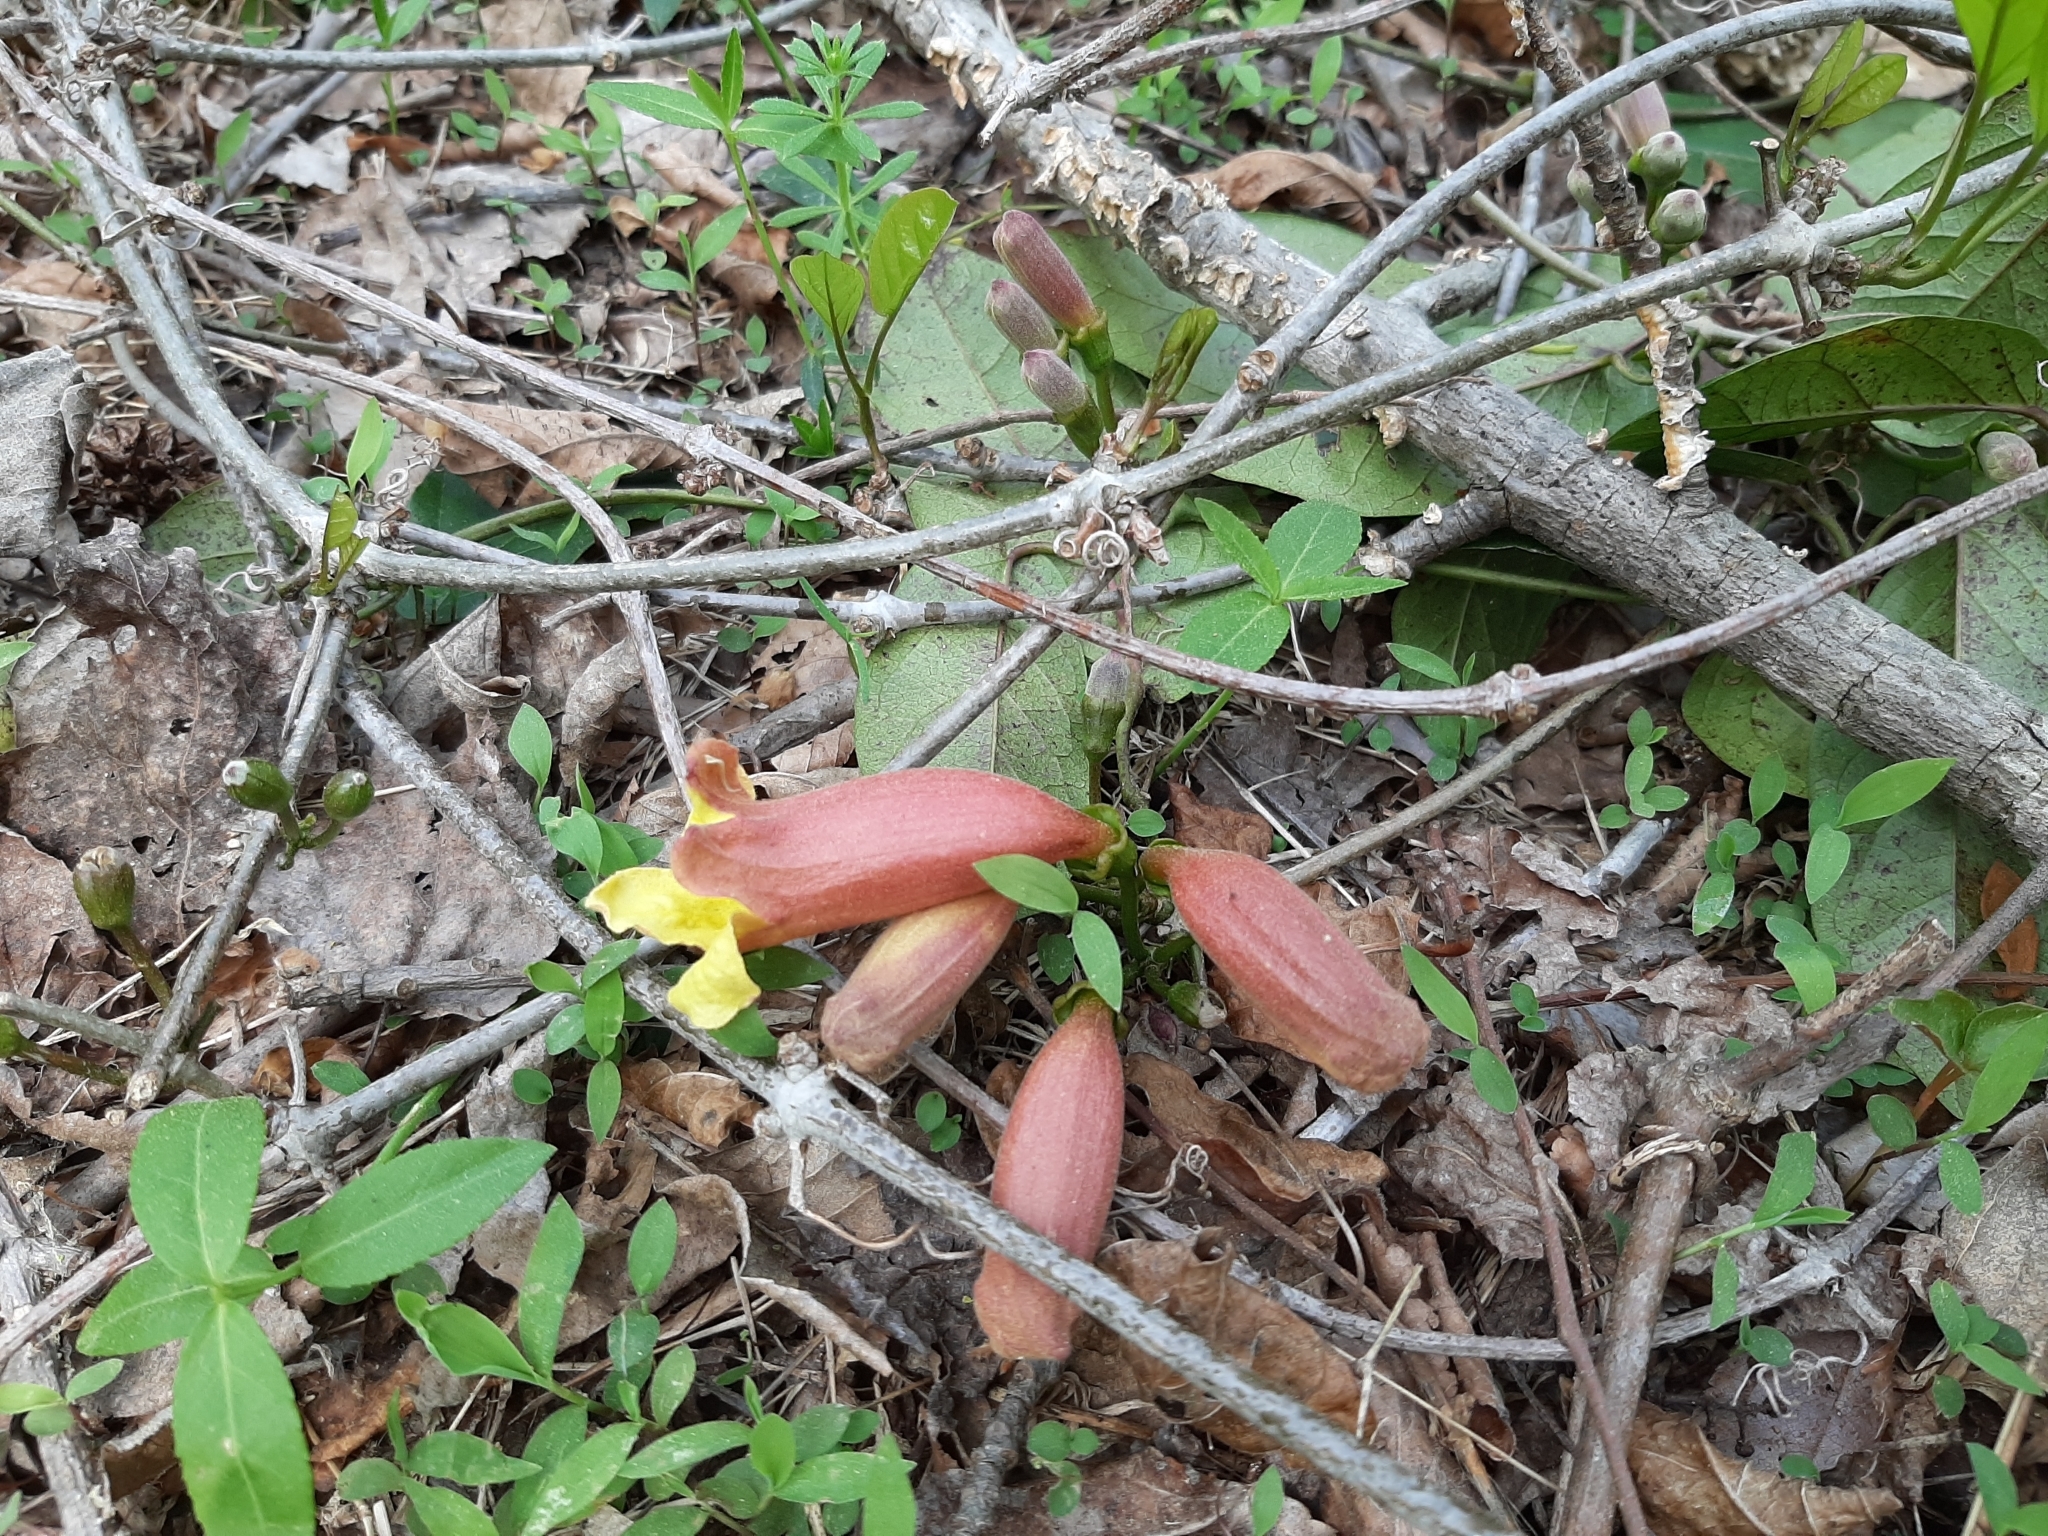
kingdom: Plantae
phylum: Tracheophyta
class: Magnoliopsida
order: Lamiales
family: Bignoniaceae
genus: Bignonia
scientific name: Bignonia capreolata
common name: Crossvine
